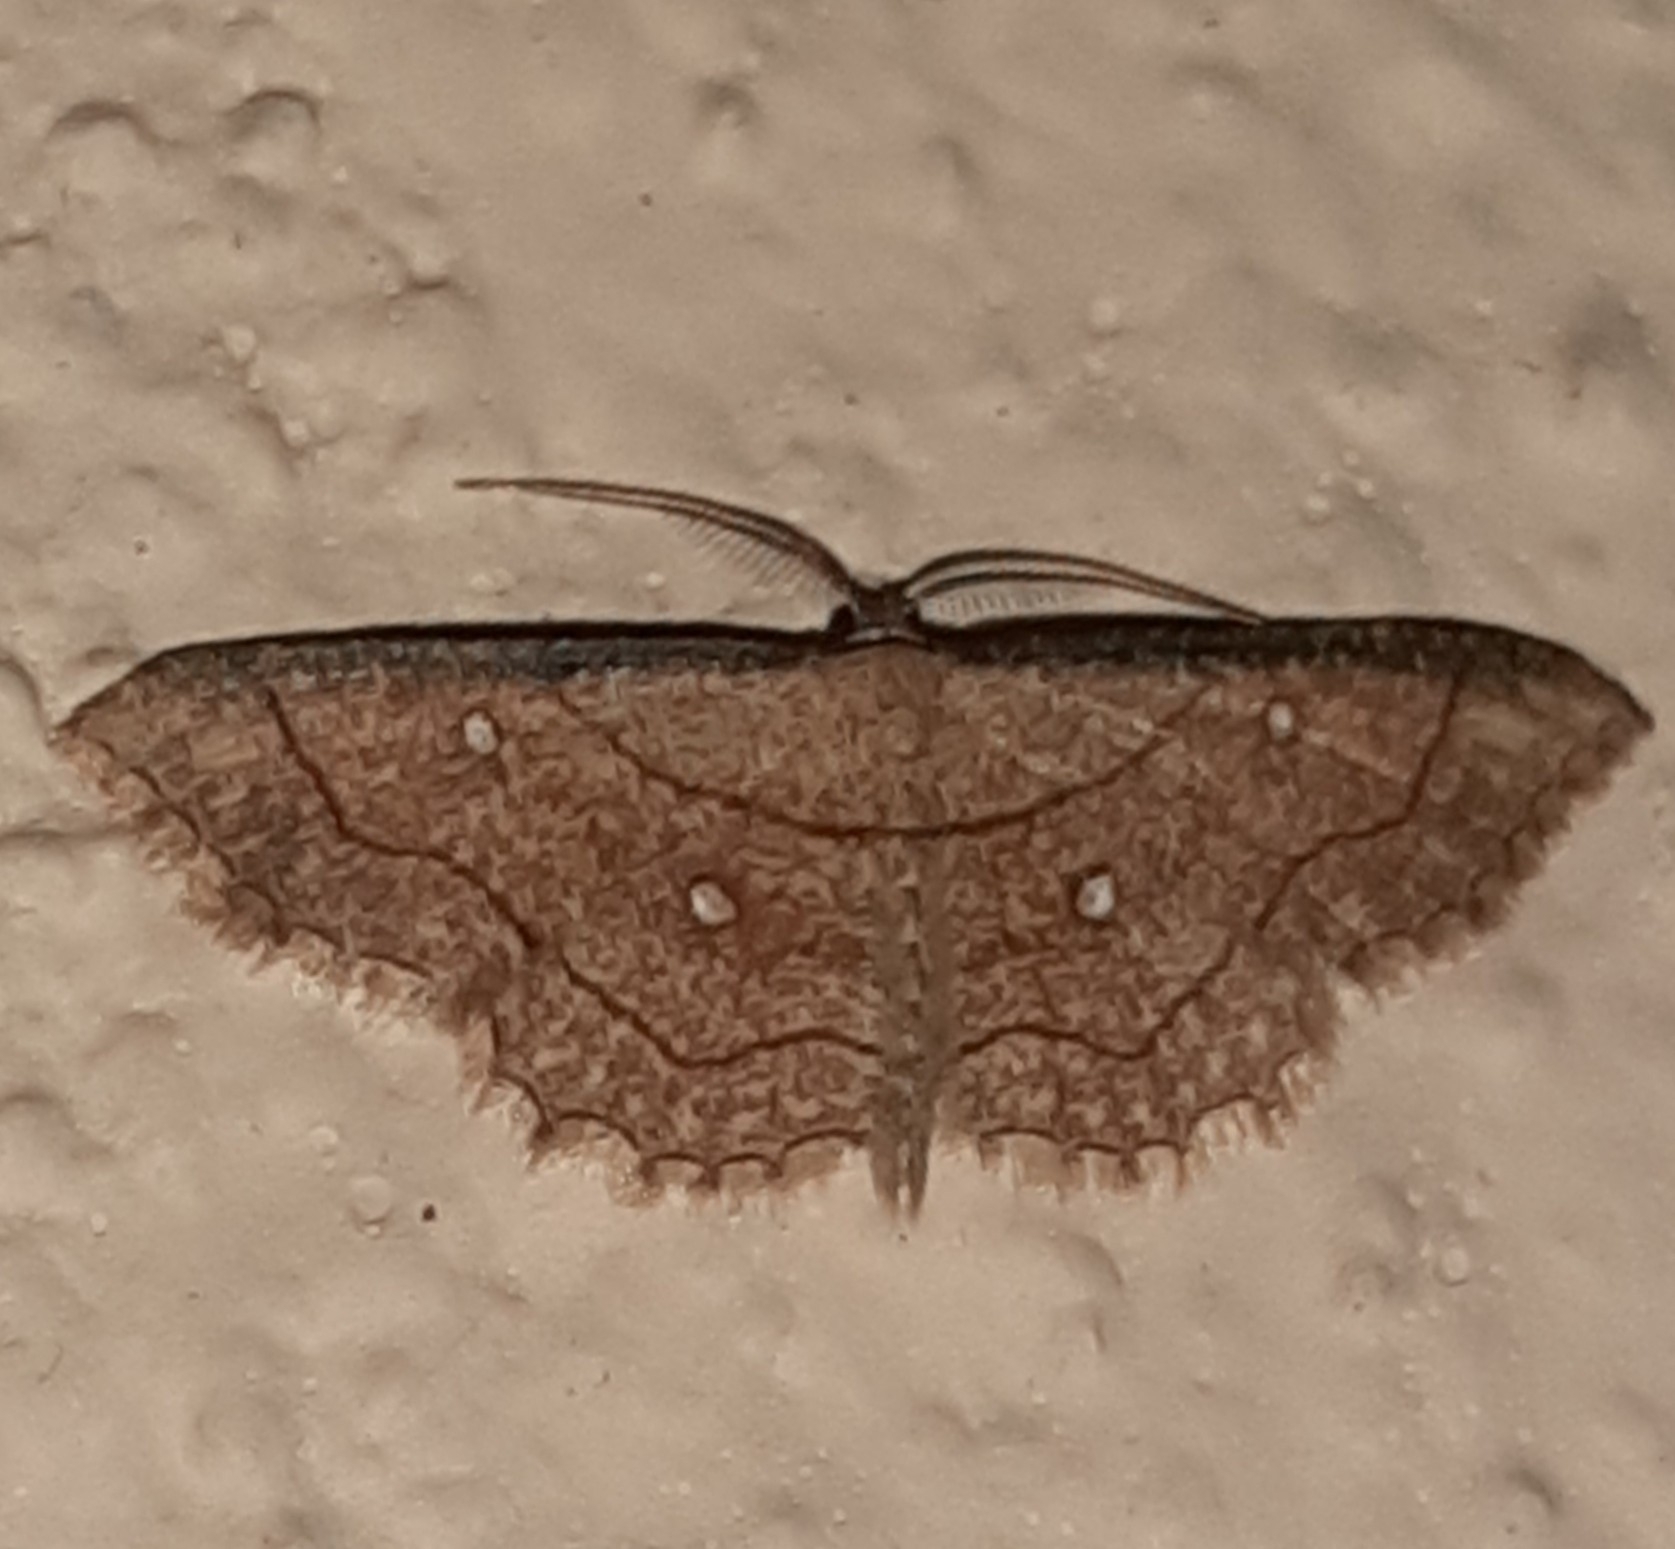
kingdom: Animalia
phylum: Arthropoda
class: Insecta
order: Lepidoptera
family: Geometridae
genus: Cyclophora
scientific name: Cyclophora coecaria
